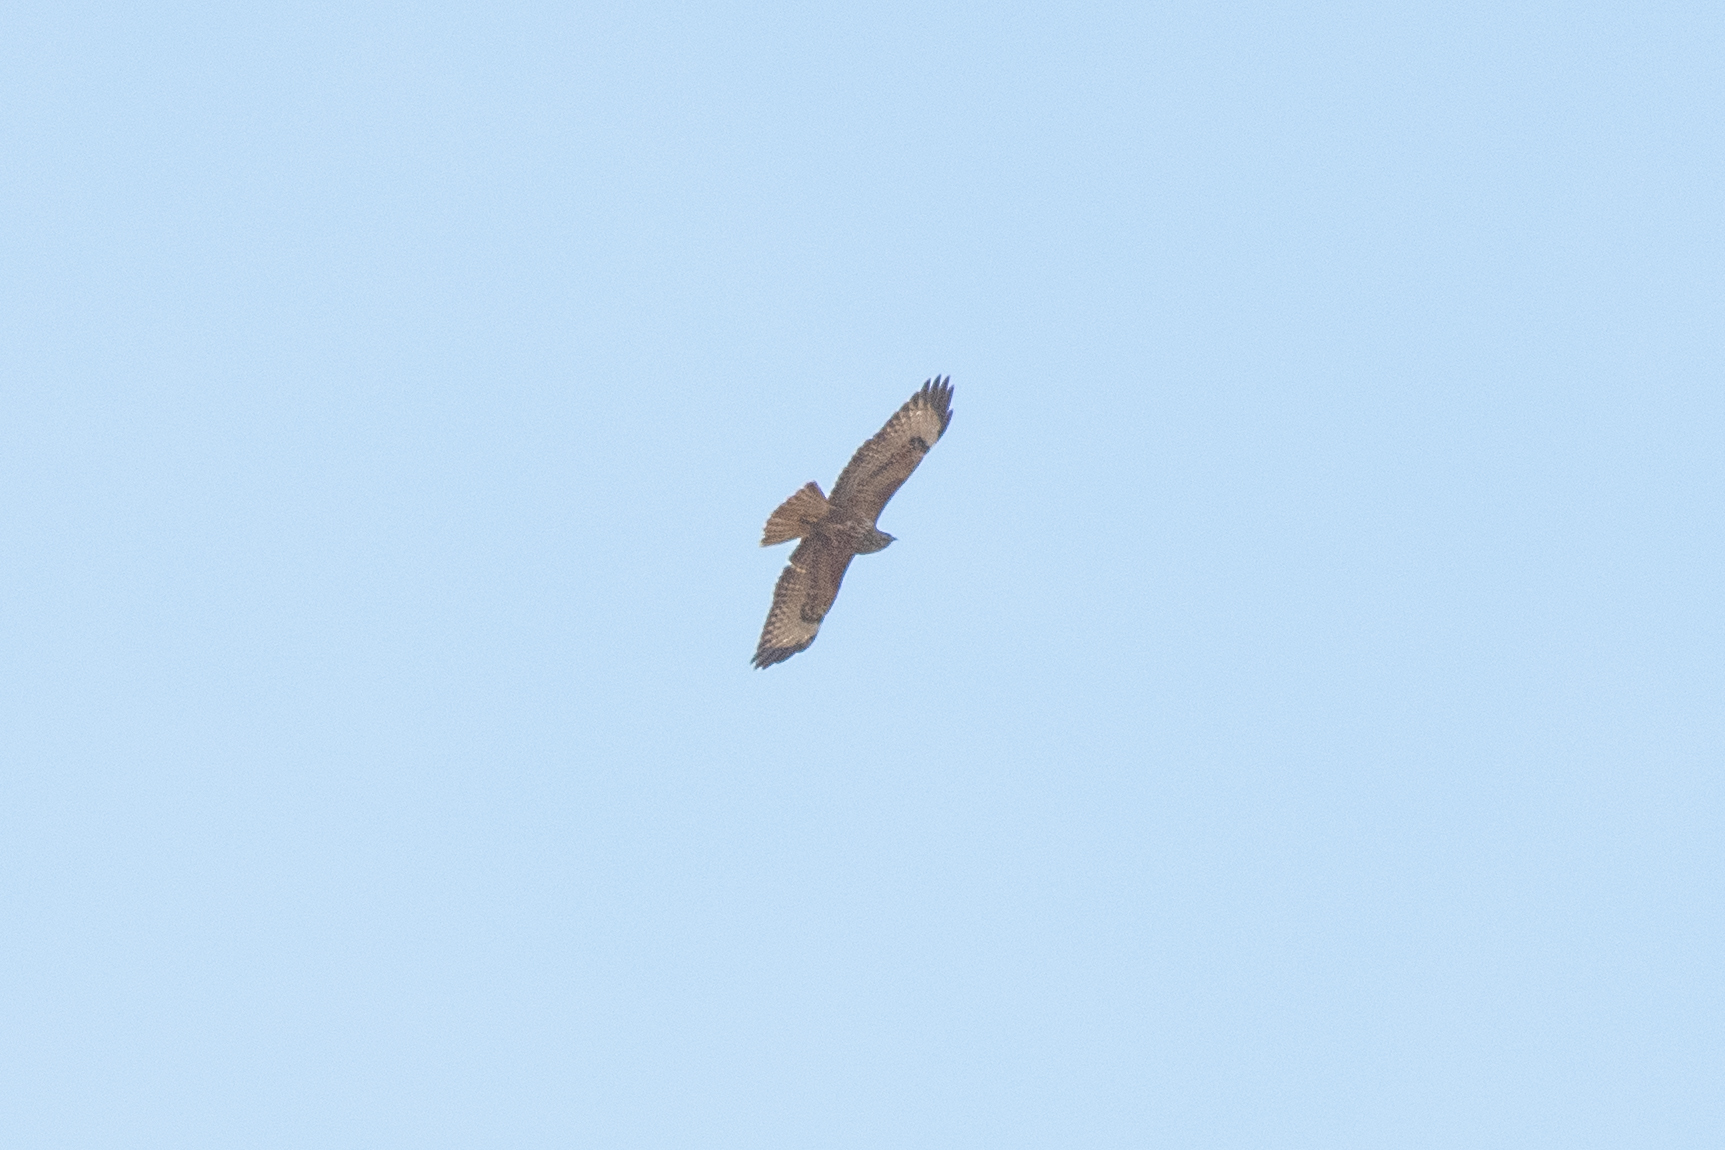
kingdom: Animalia
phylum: Chordata
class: Aves
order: Accipitriformes
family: Accipitridae
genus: Buteo
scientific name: Buteo buteo
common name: Common buzzard
